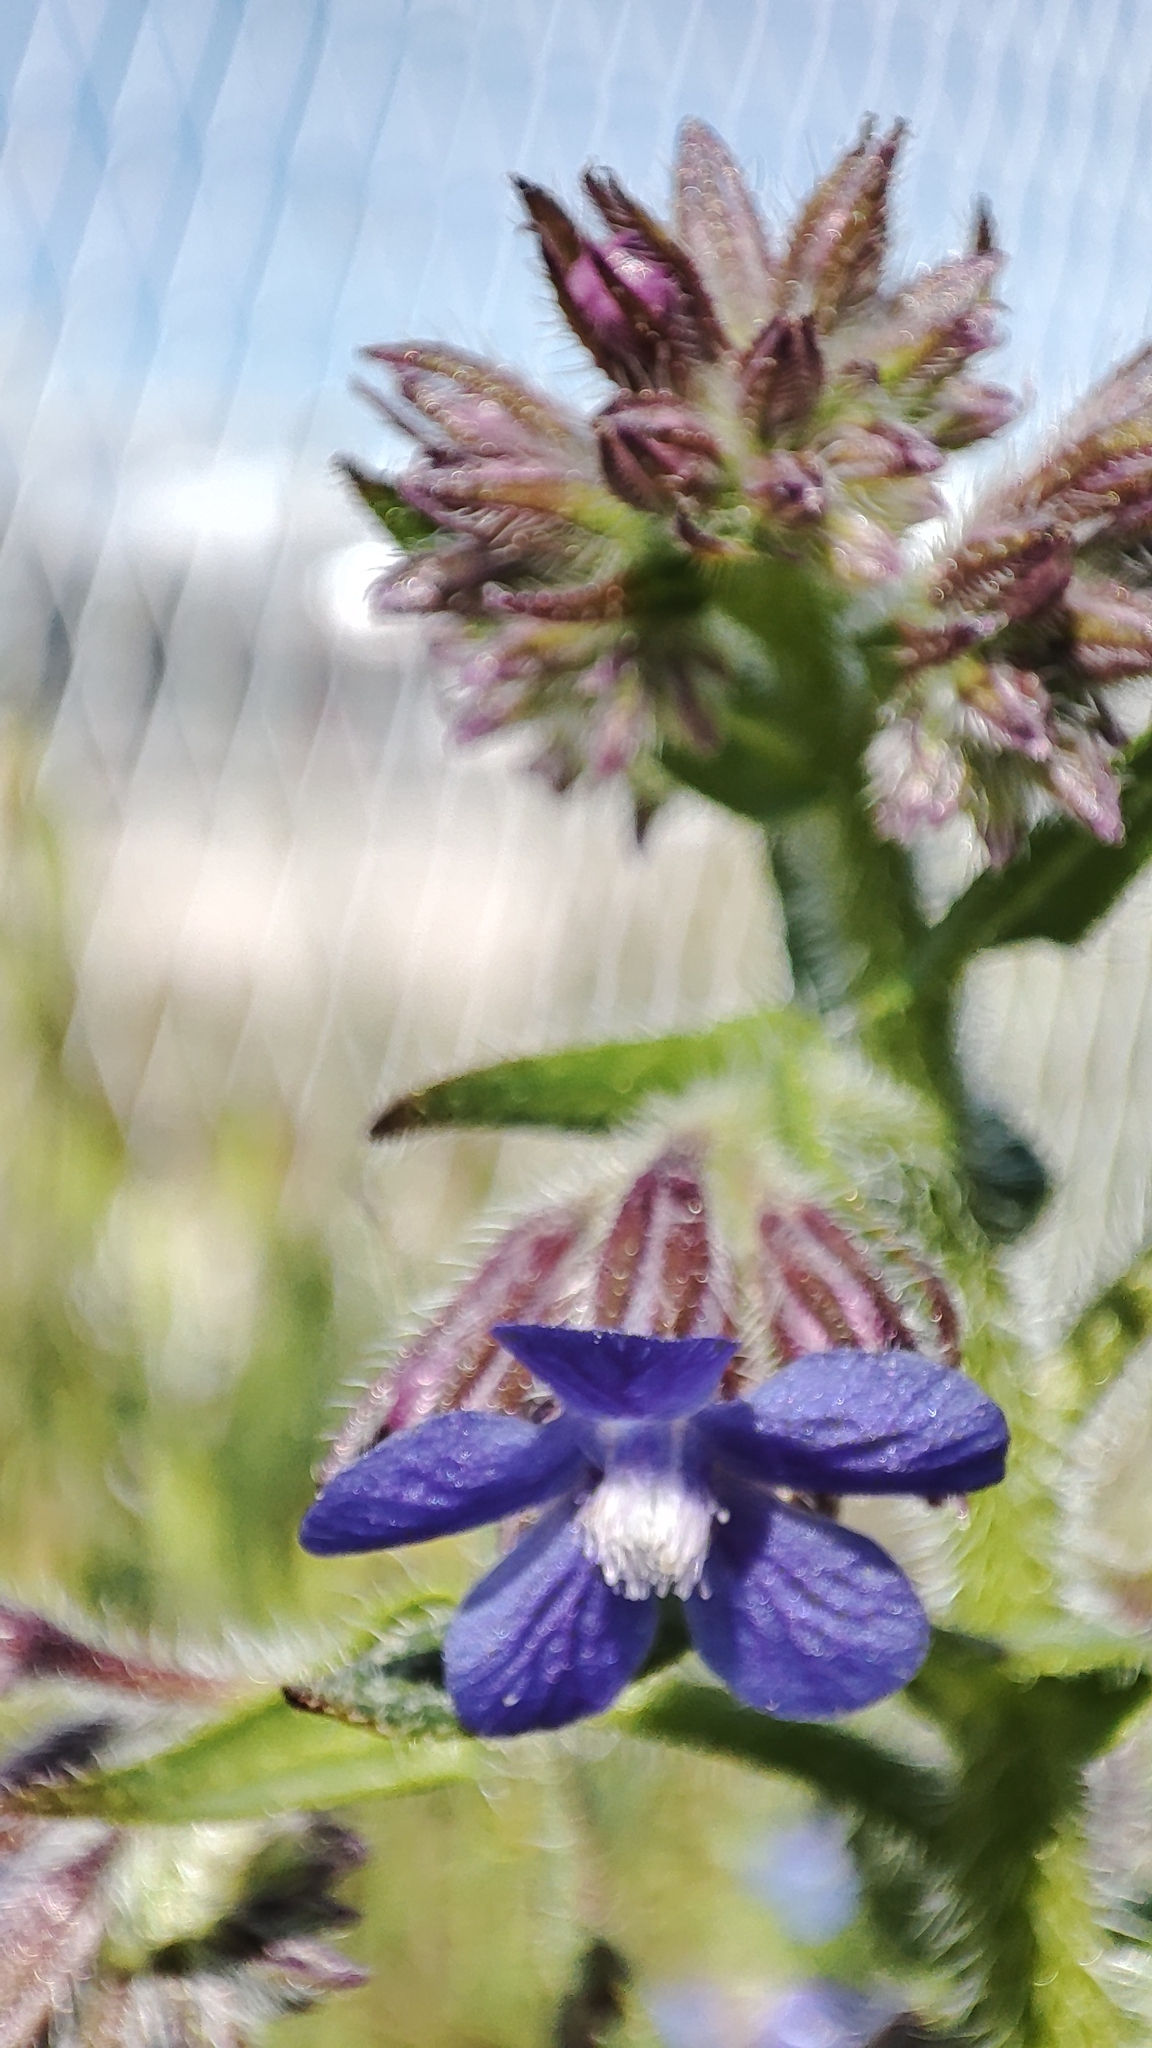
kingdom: Plantae
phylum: Tracheophyta
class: Magnoliopsida
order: Boraginales
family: Boraginaceae
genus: Anchusa
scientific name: Anchusa azurea
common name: Garden anchusa
